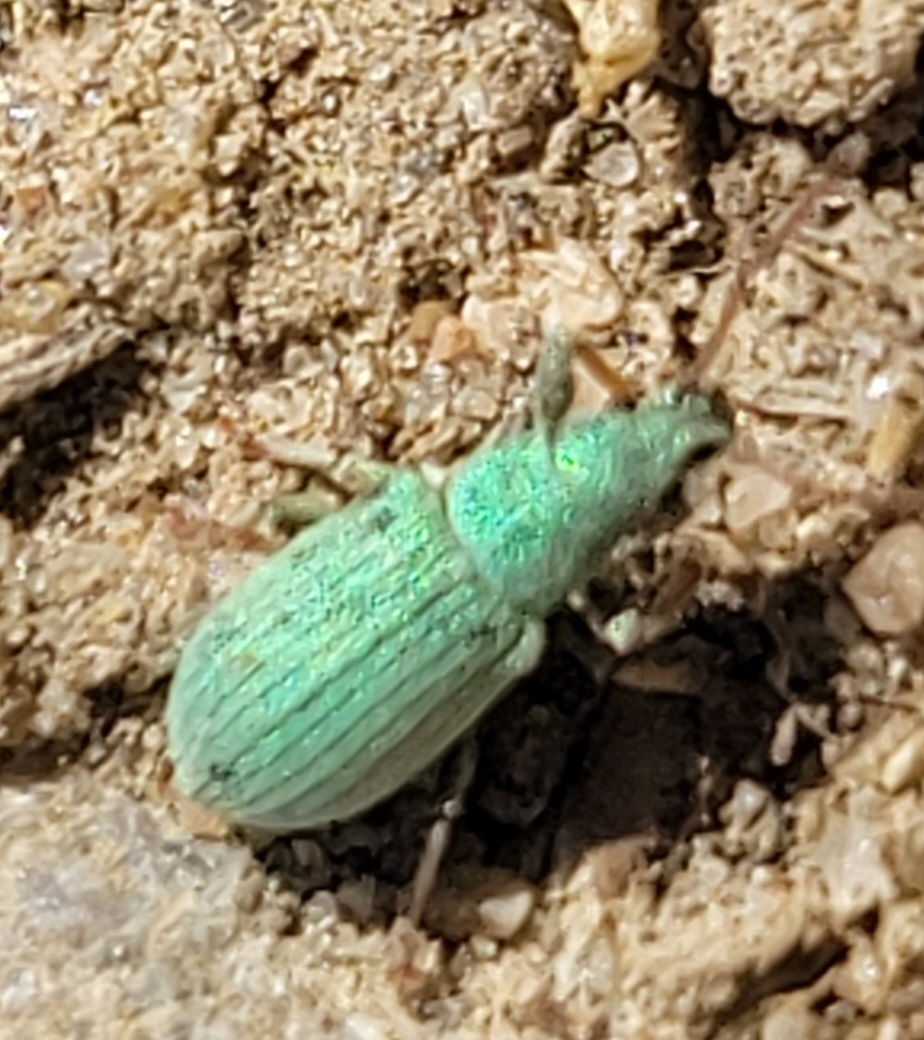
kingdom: Animalia
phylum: Arthropoda
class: Insecta
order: Coleoptera
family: Curculionidae
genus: Phyllobius
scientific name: Phyllobius virideaeris
